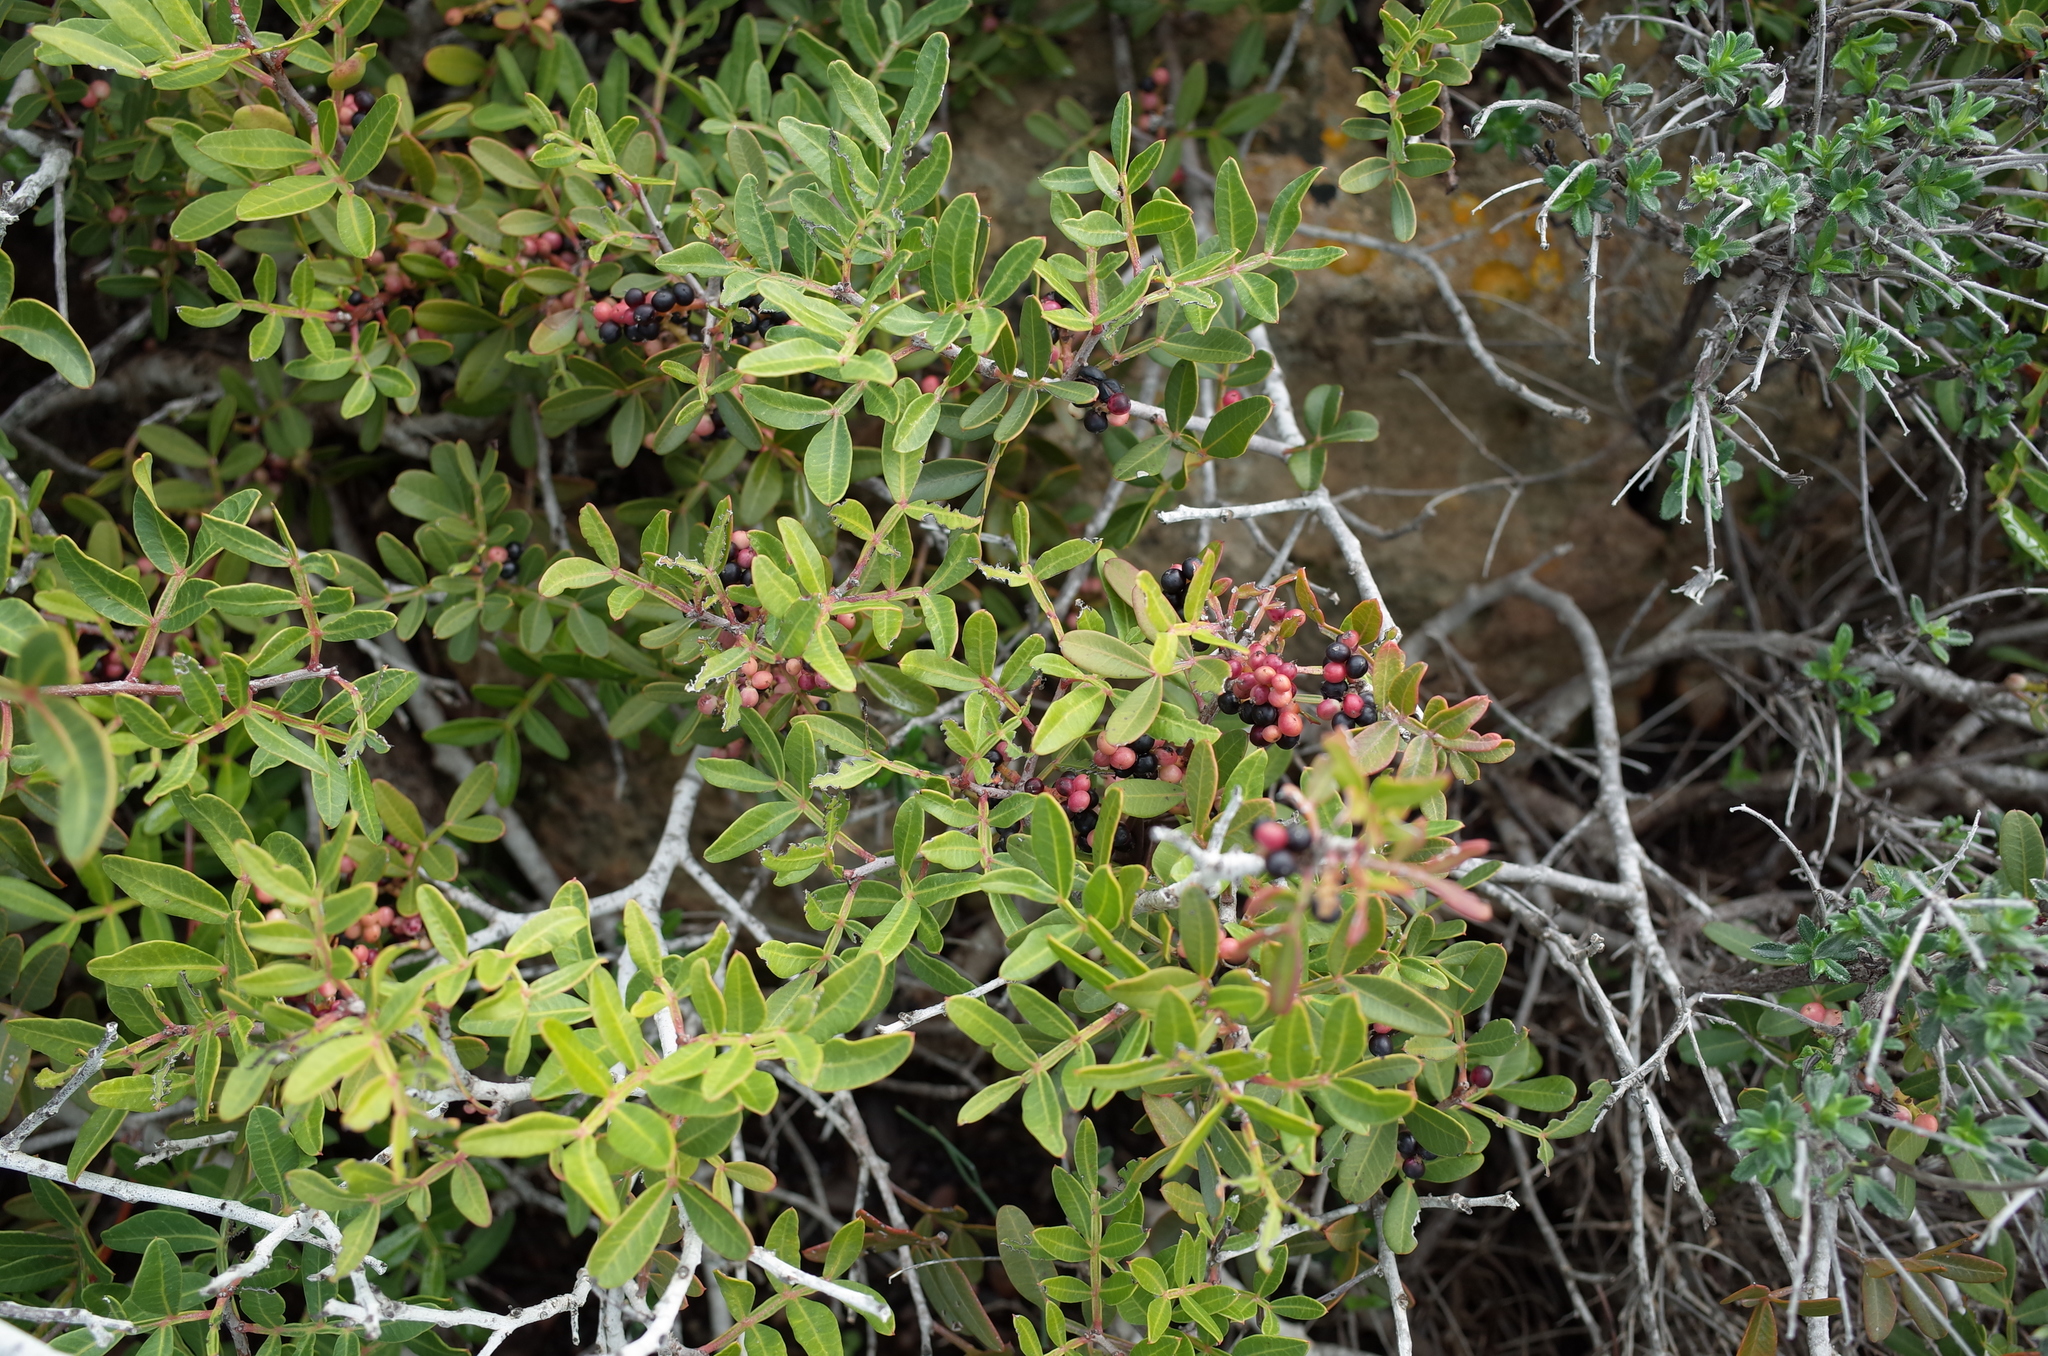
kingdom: Plantae
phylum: Tracheophyta
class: Magnoliopsida
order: Sapindales
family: Anacardiaceae
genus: Pistacia
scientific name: Pistacia lentiscus
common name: Lentisk
